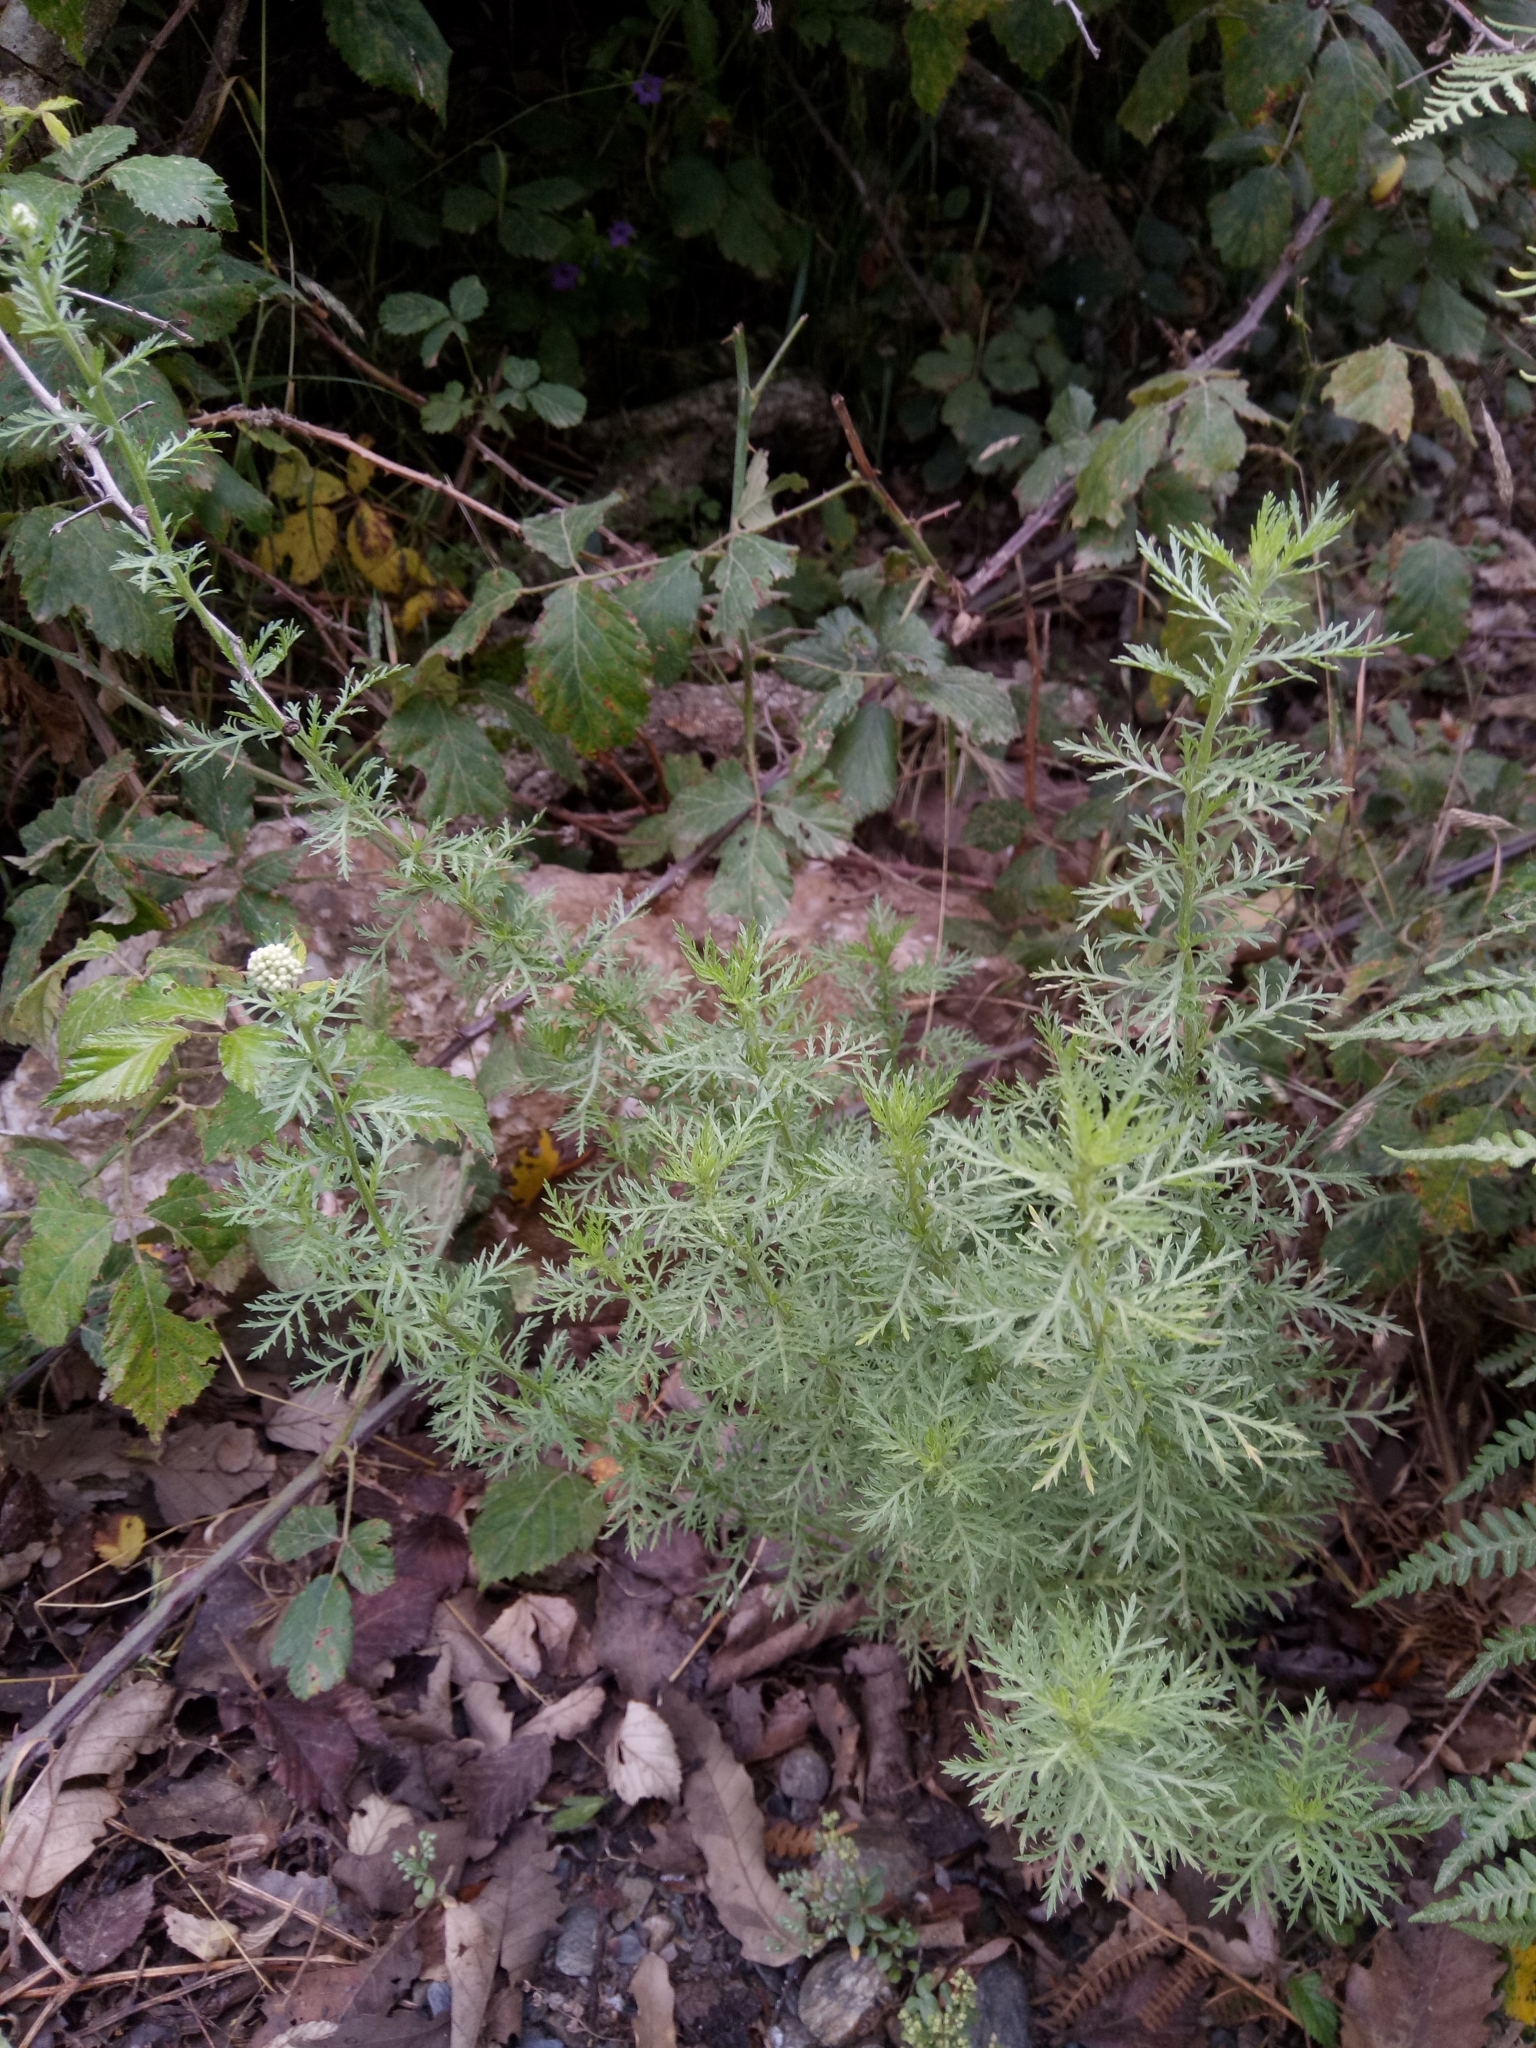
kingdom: Plantae
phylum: Tracheophyta
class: Magnoliopsida
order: Asterales
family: Asteraceae
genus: Achillea
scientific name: Achillea ligustica
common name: Southern yarrow
